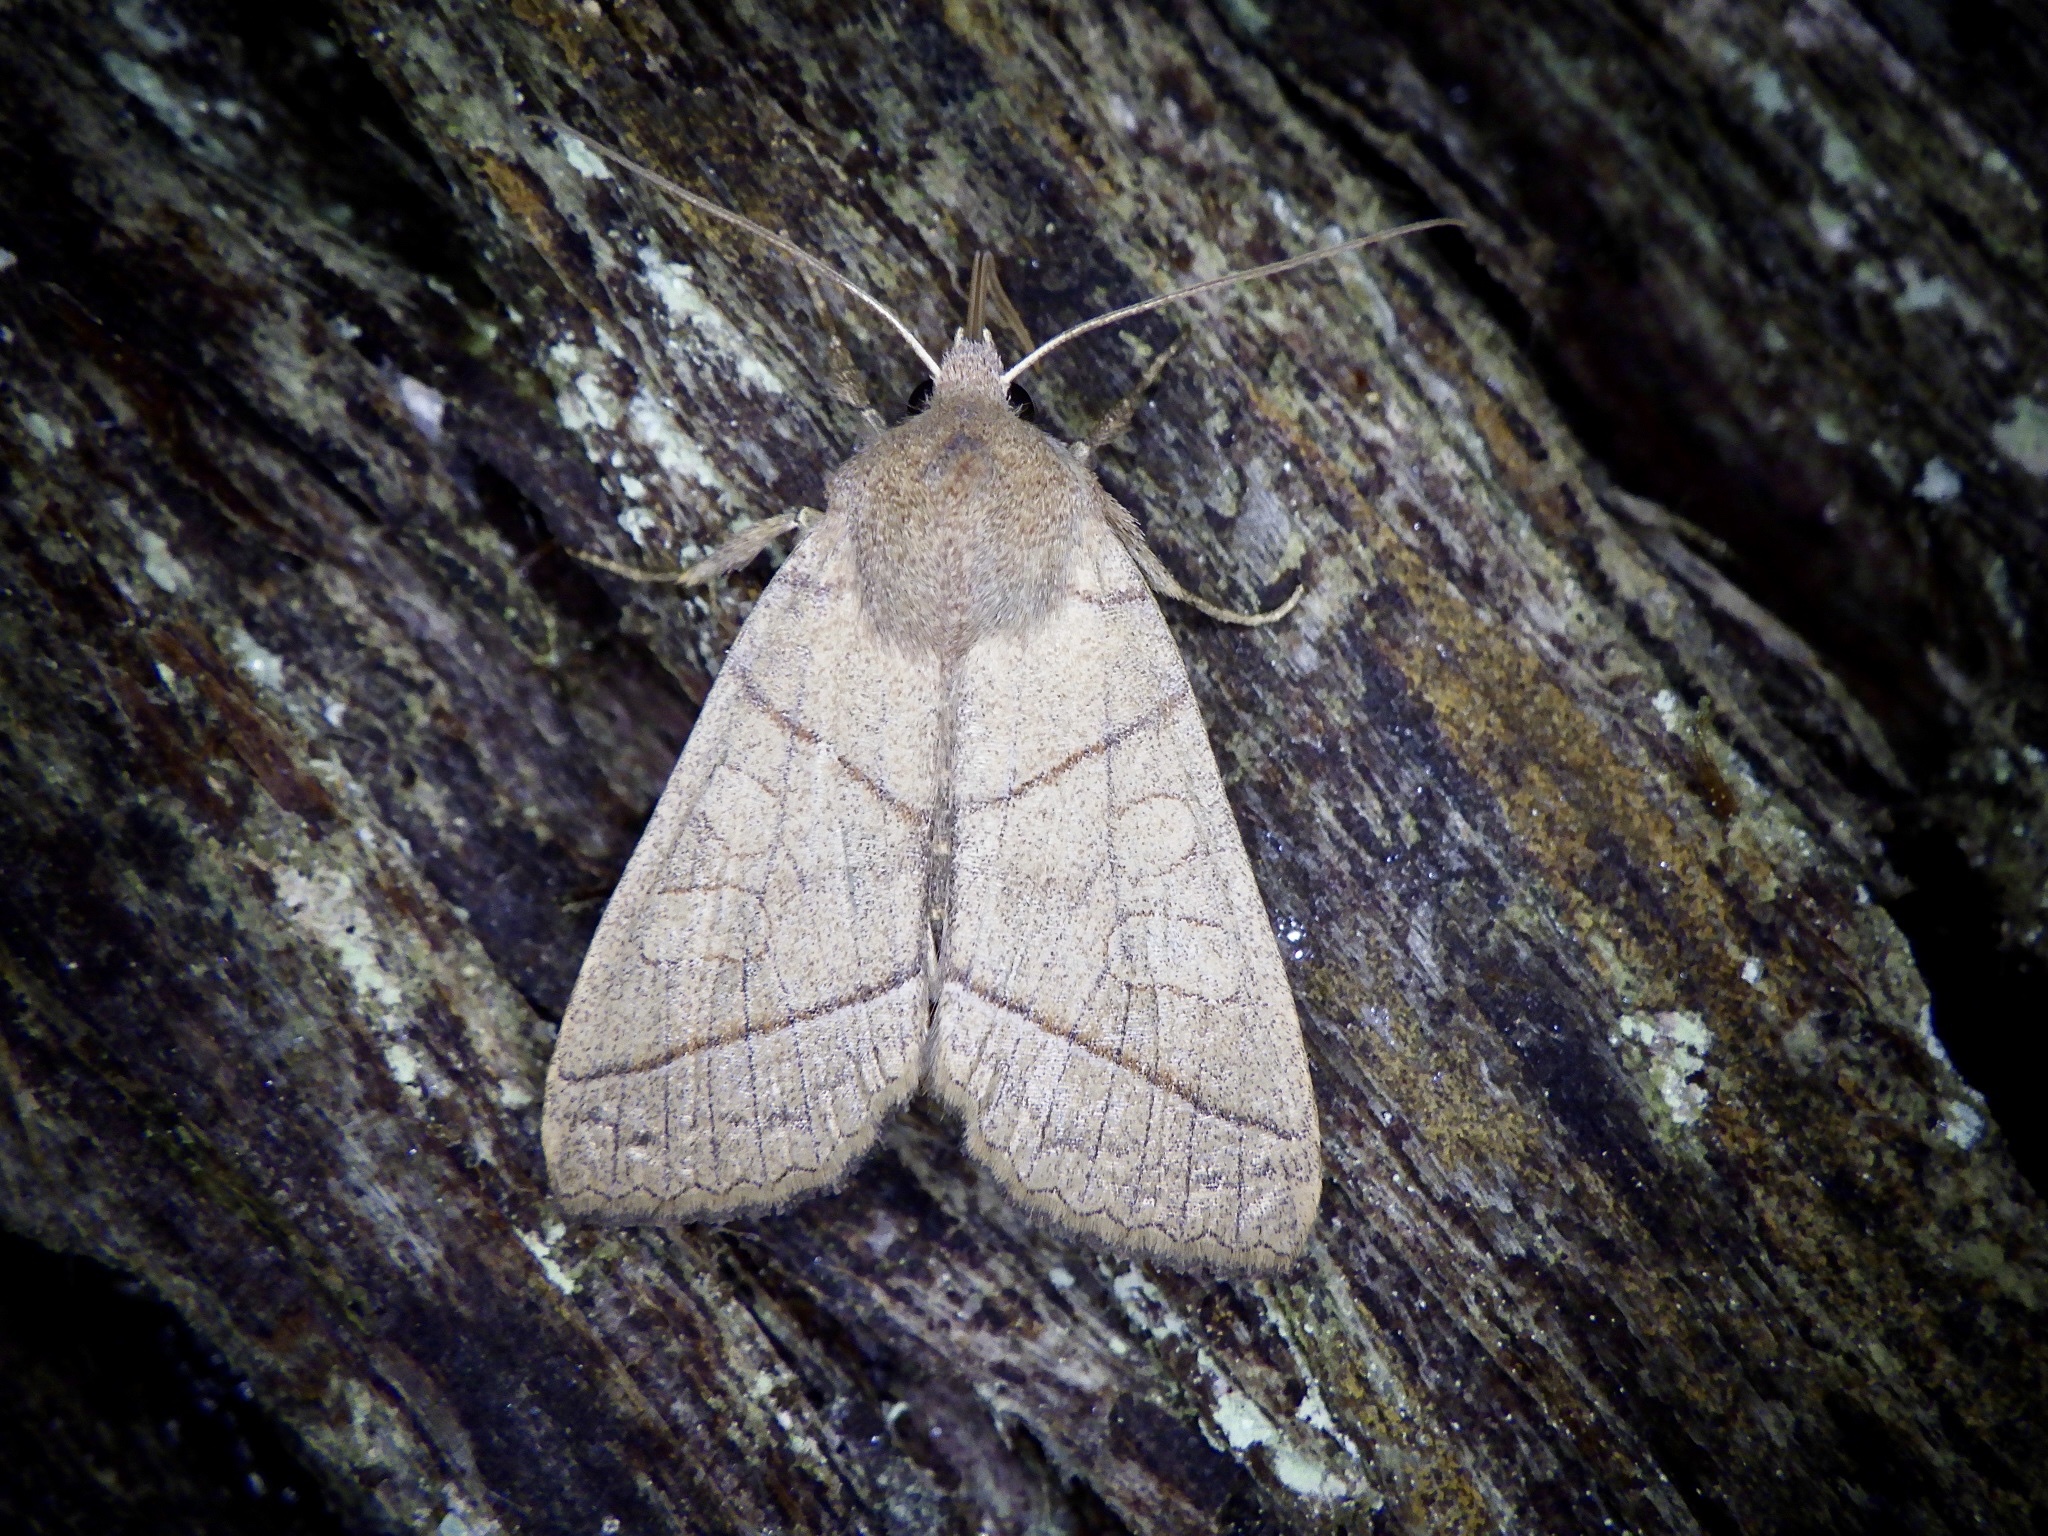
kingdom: Animalia
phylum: Arthropoda
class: Insecta
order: Lepidoptera
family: Noctuidae
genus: Telorta
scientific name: Telorta divergens
